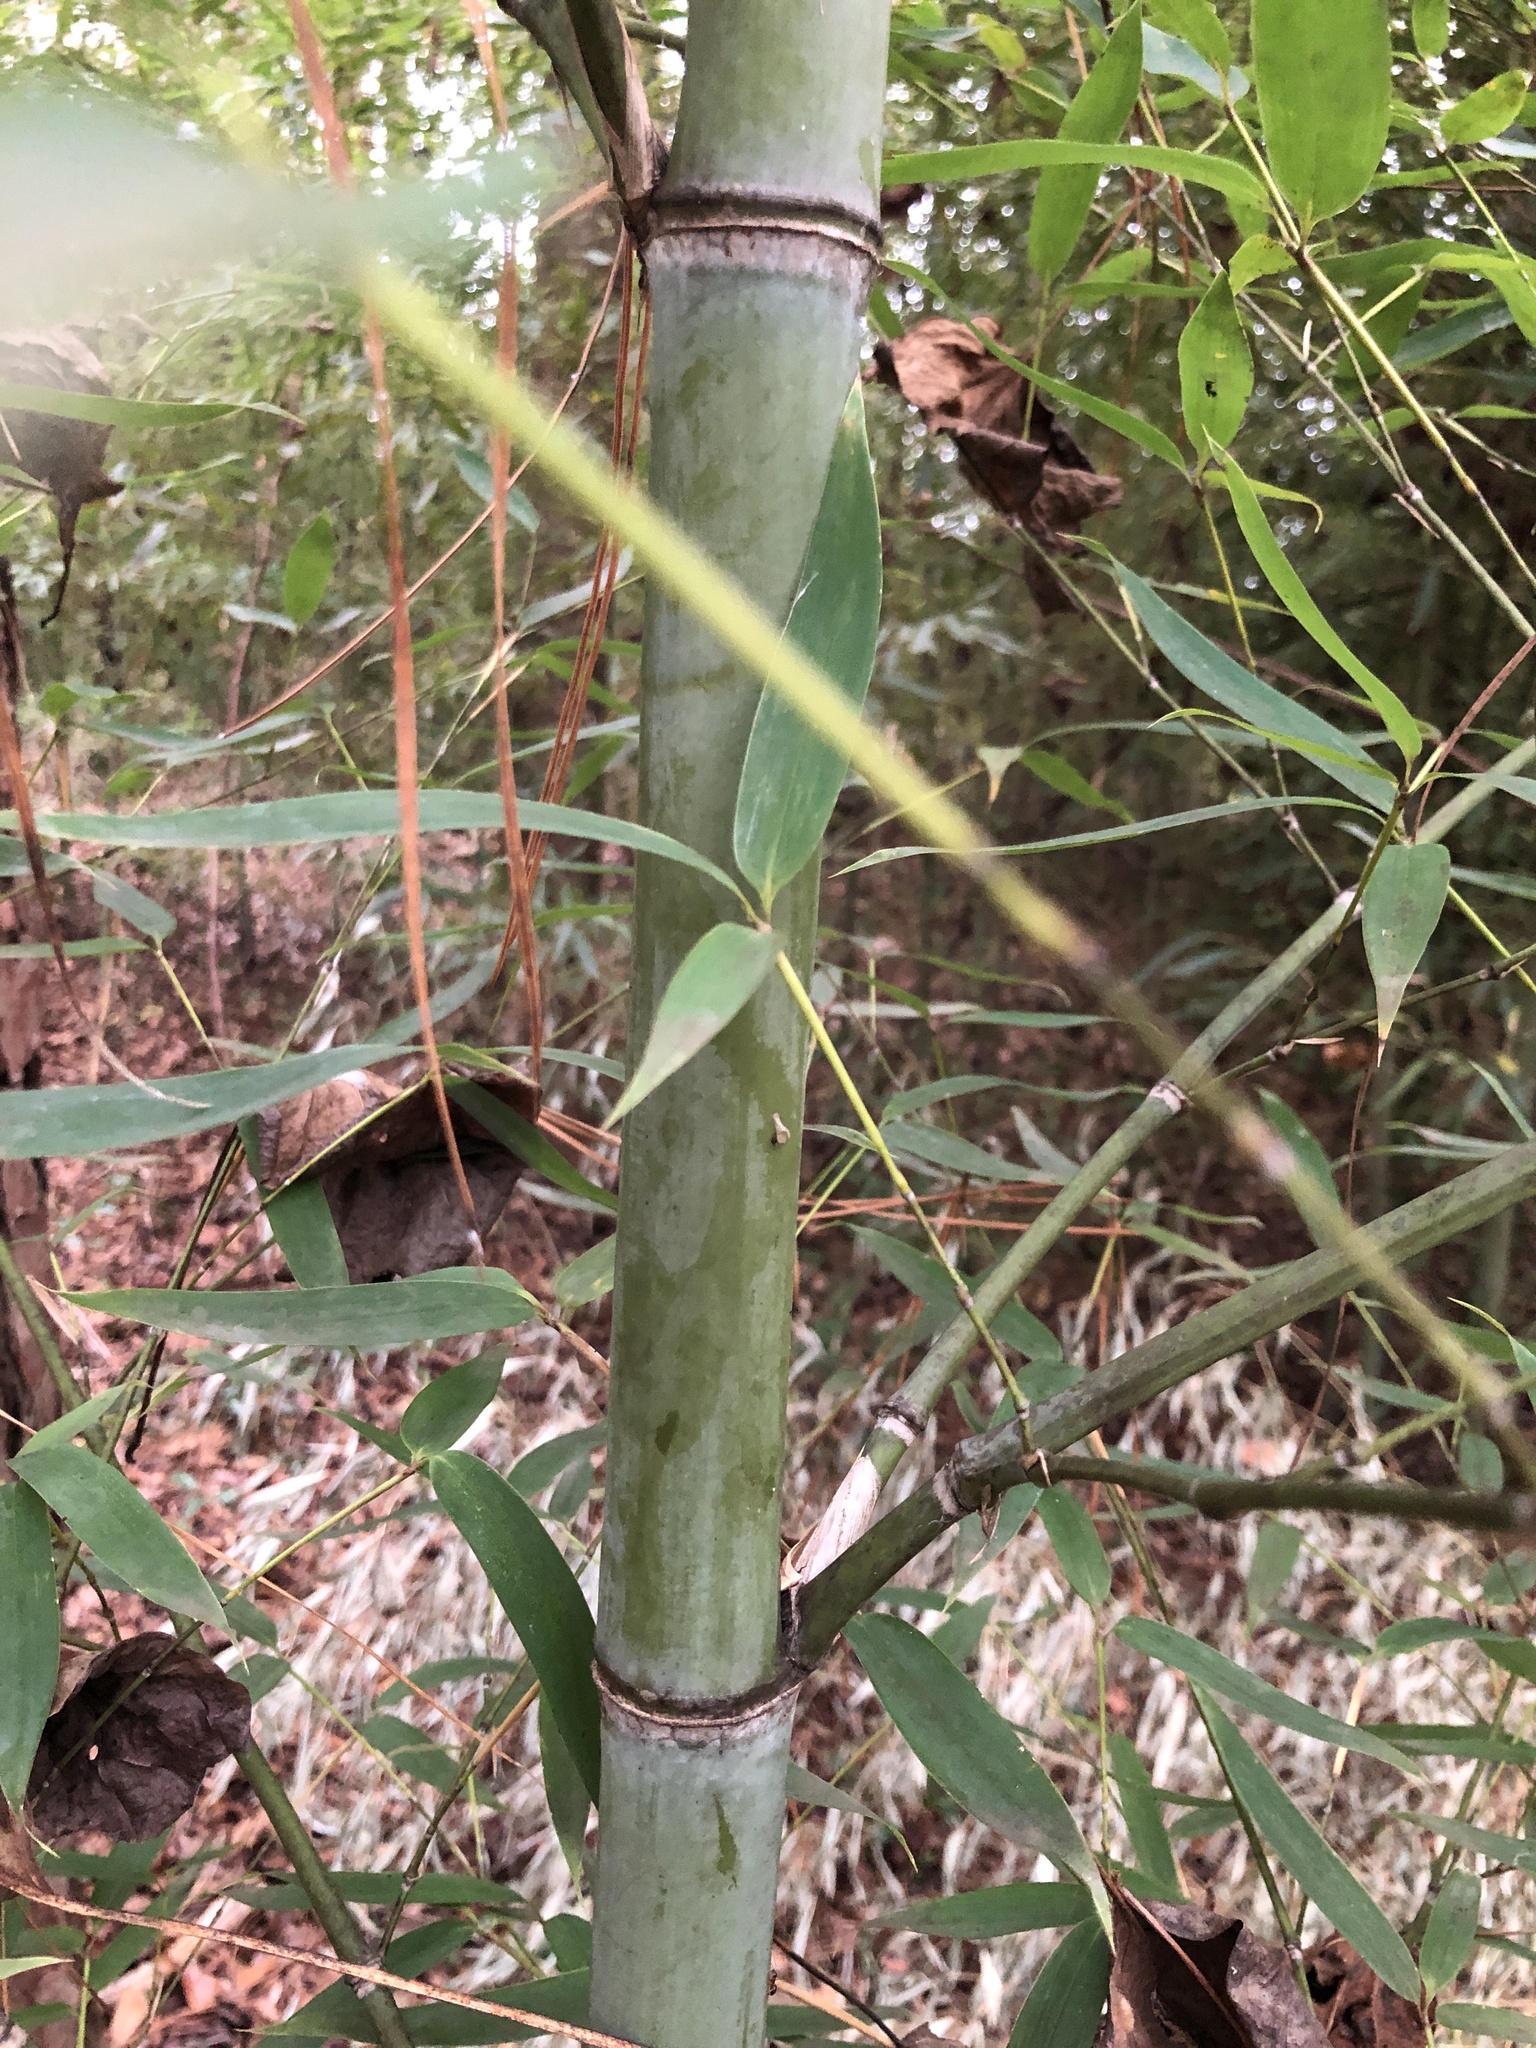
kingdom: Plantae
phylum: Tracheophyta
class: Liliopsida
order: Poales
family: Poaceae
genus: Phyllostachys
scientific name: Phyllostachys aurea
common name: Golden bamboo
